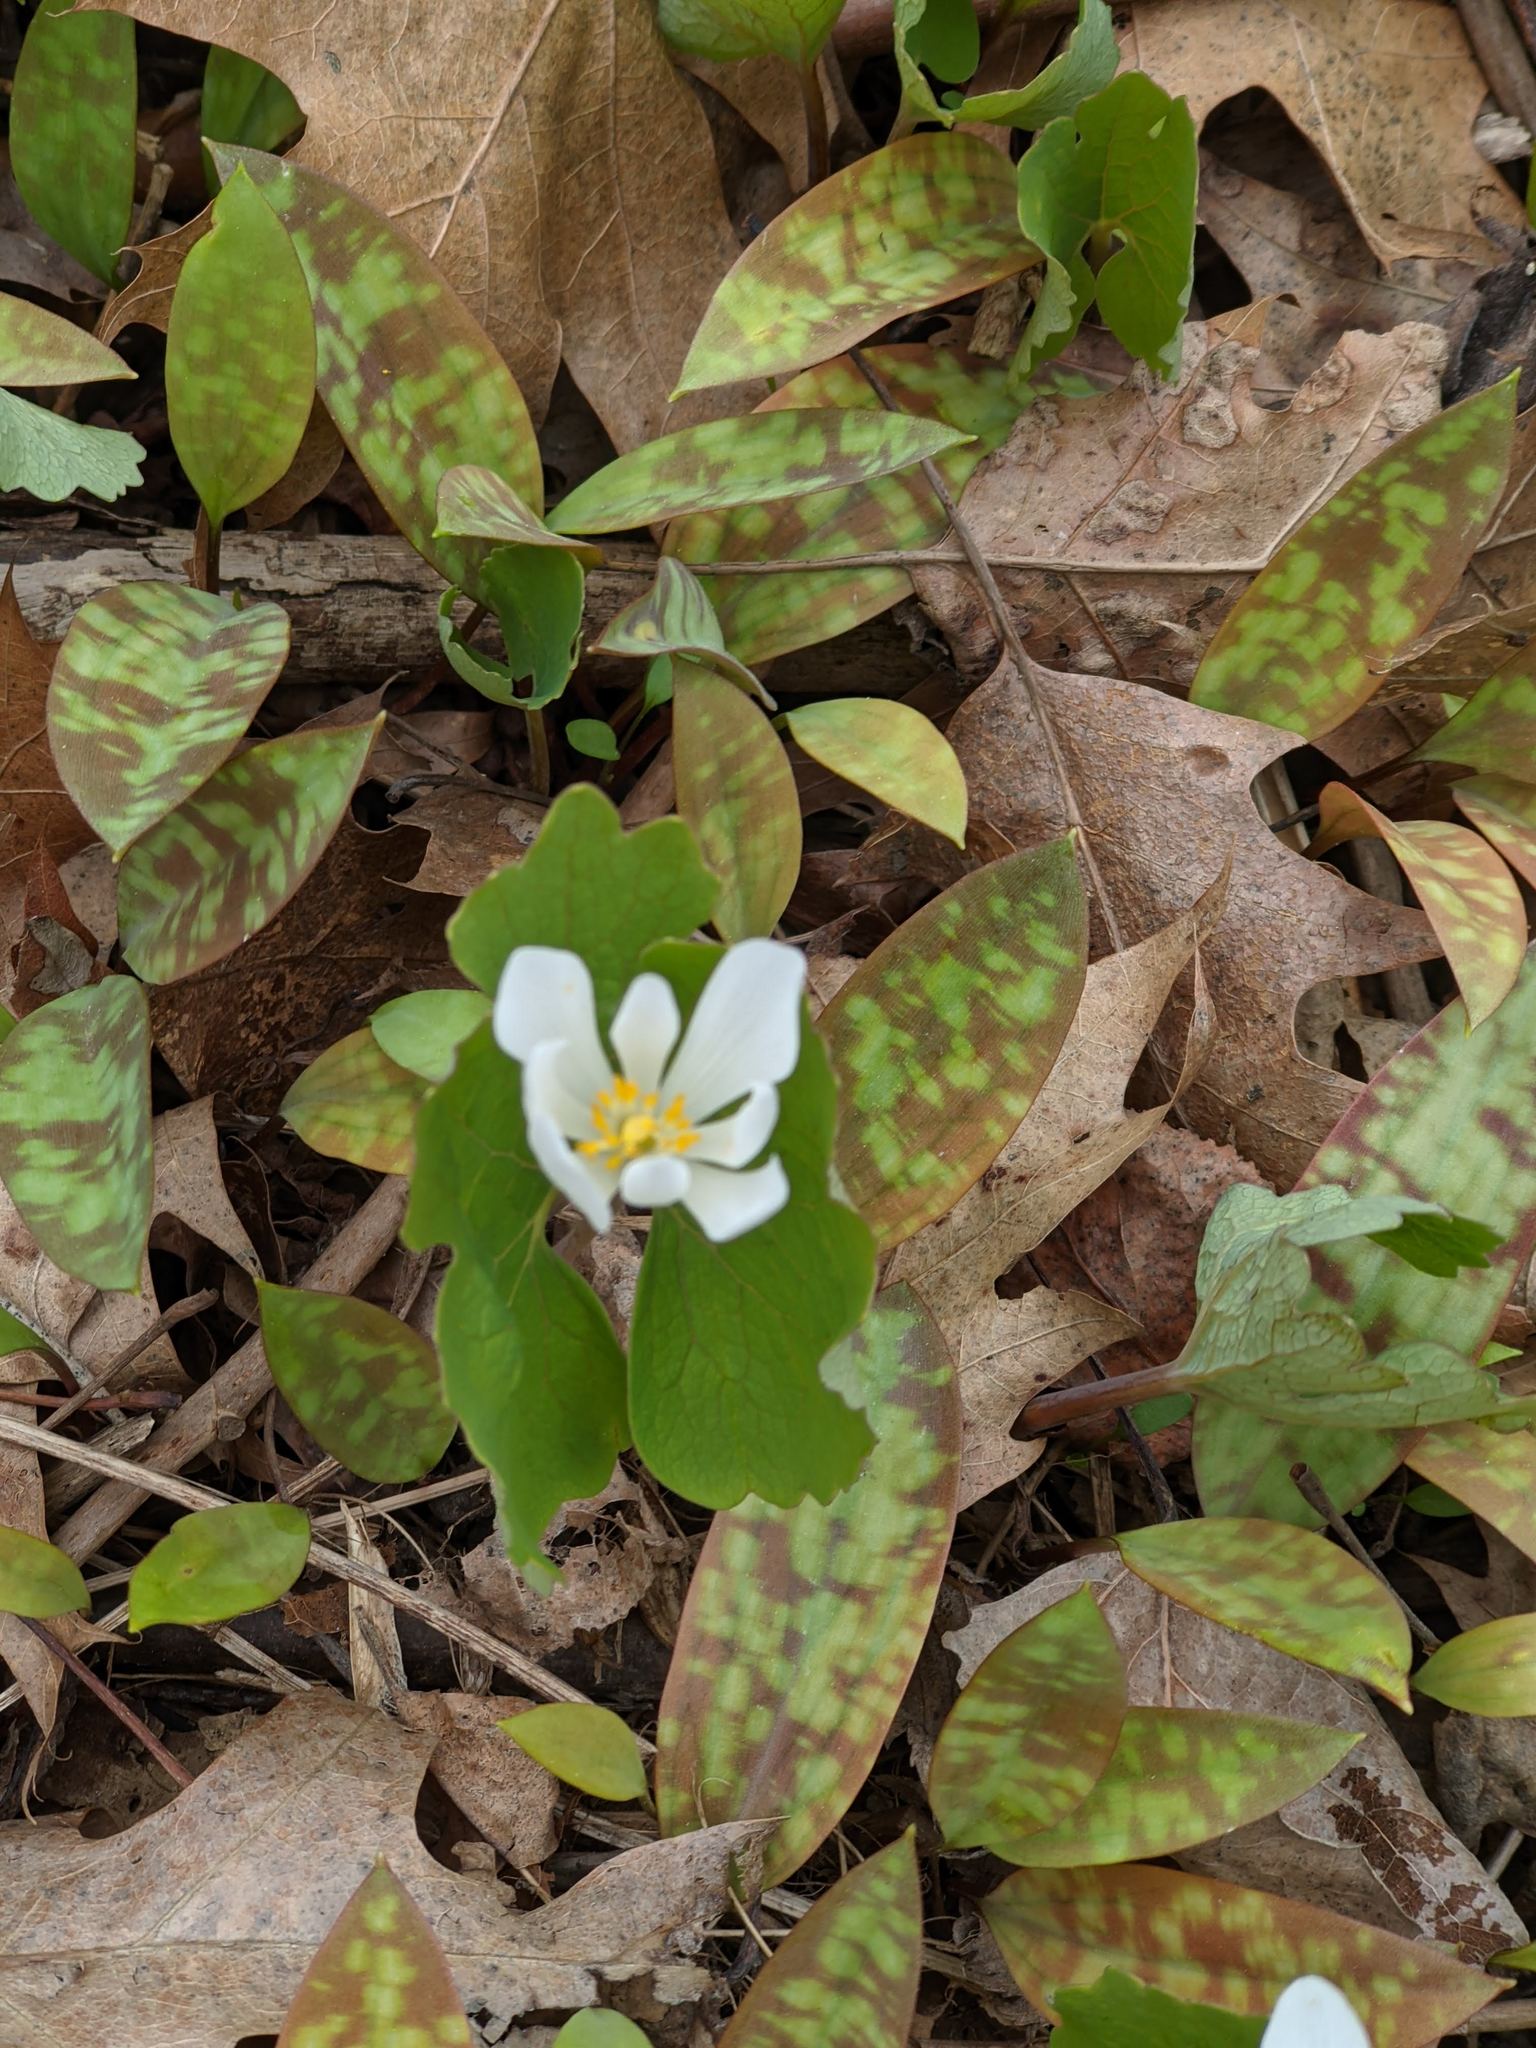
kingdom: Plantae
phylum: Tracheophyta
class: Magnoliopsida
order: Ranunculales
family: Papaveraceae
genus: Sanguinaria
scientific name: Sanguinaria canadensis
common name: Bloodroot
